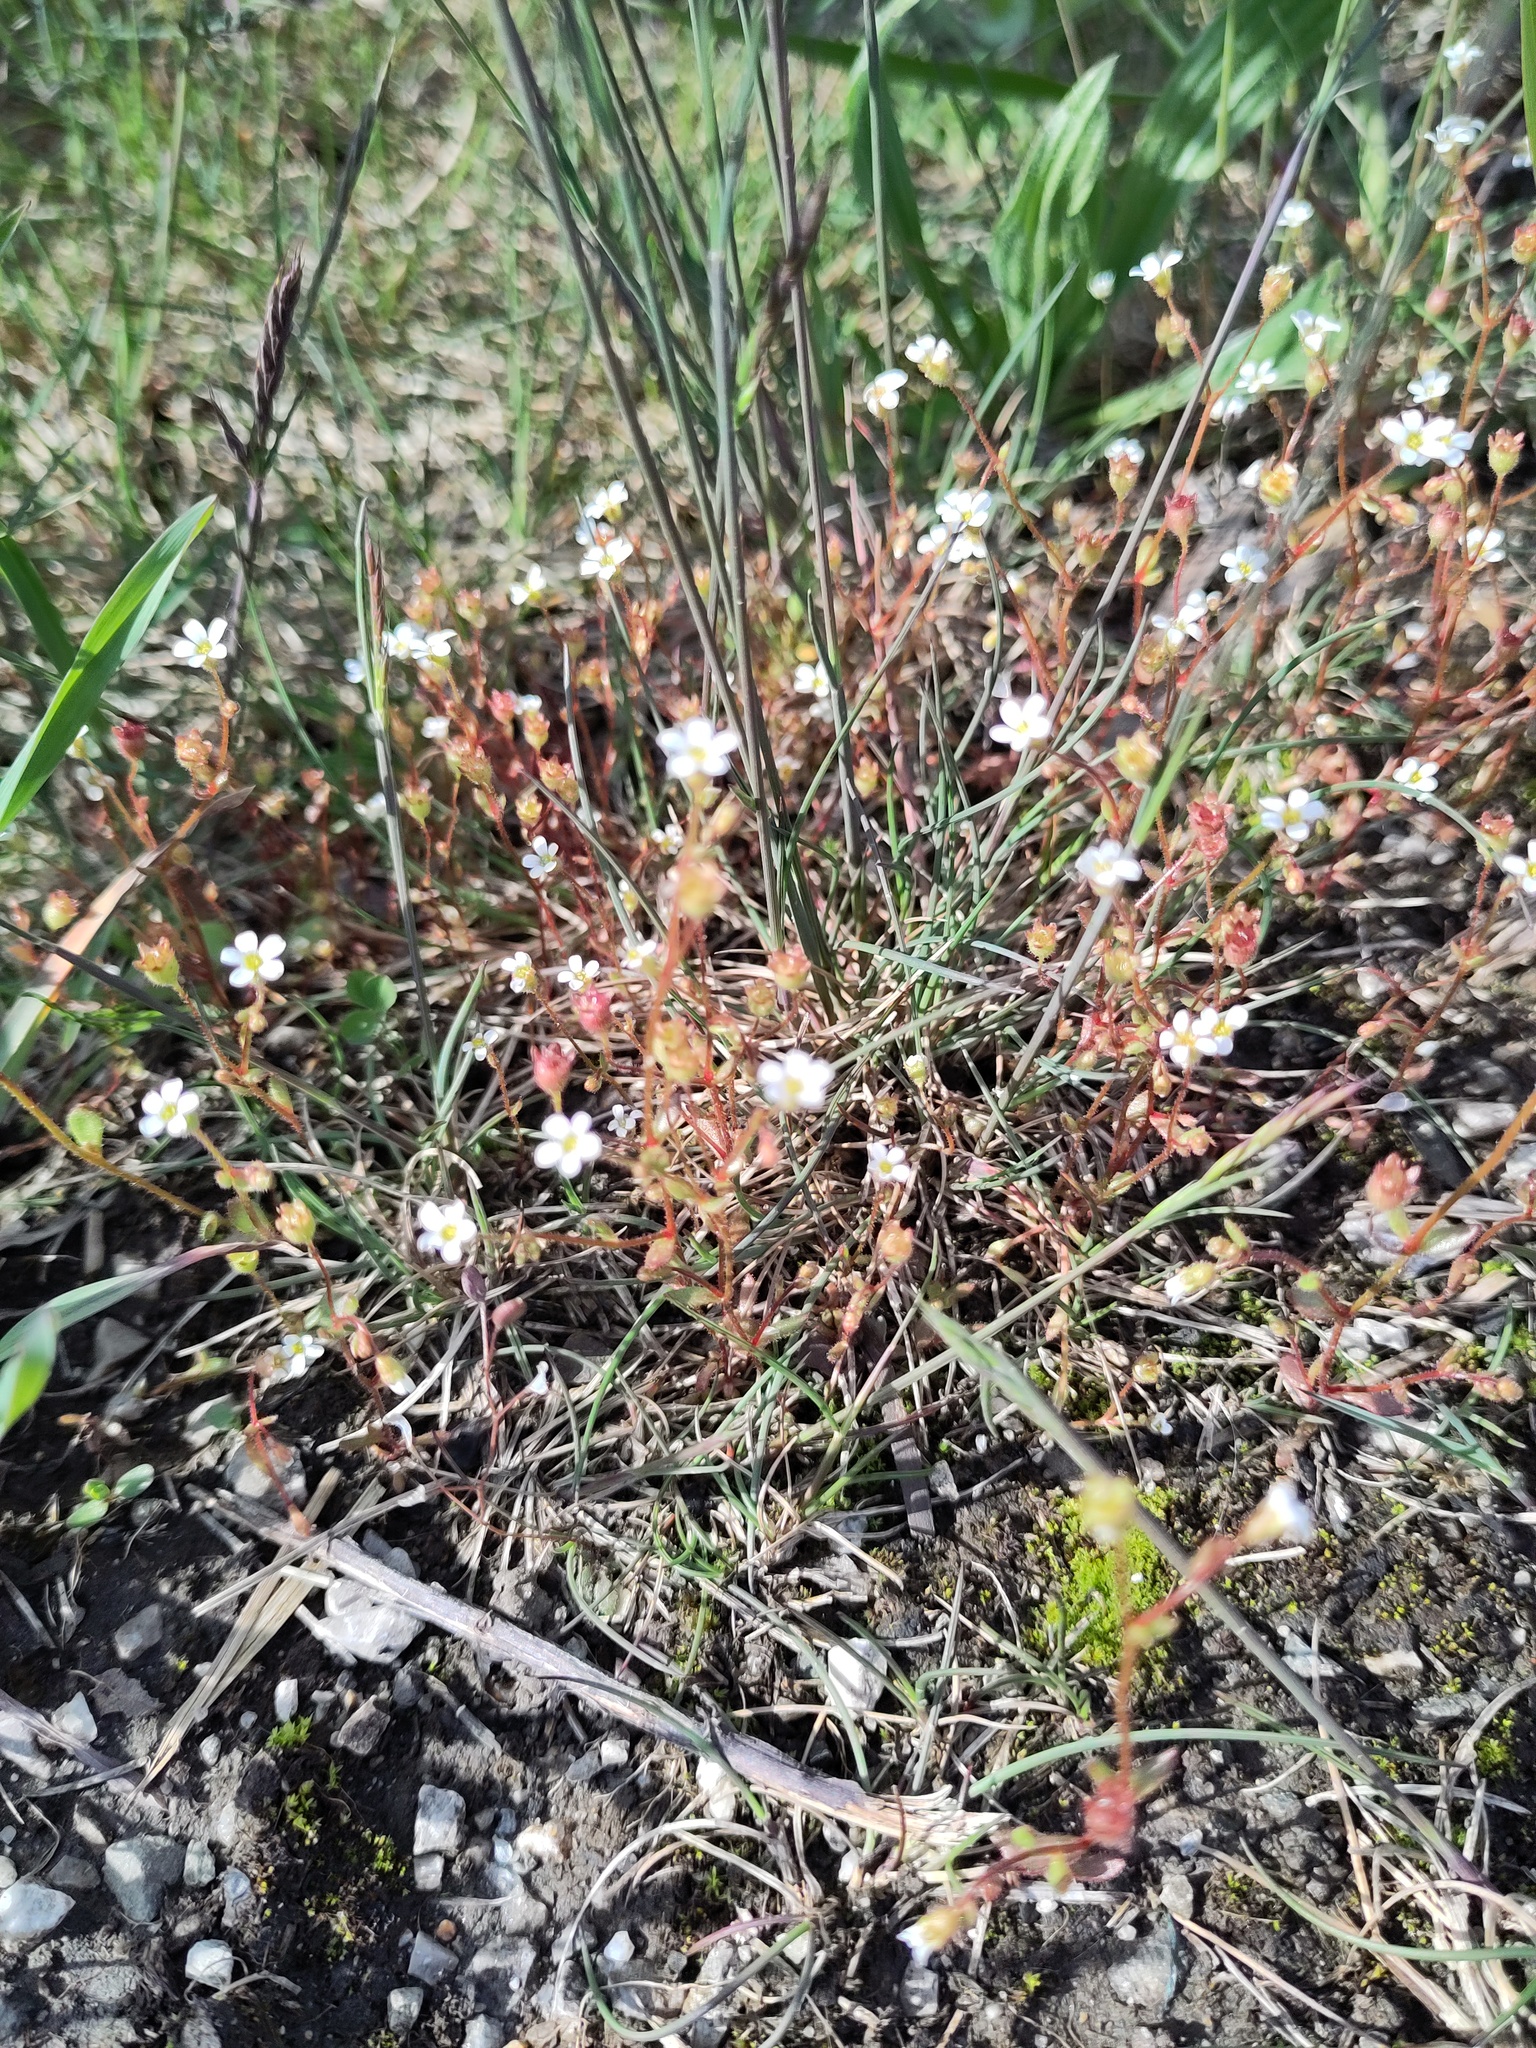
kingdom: Plantae
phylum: Tracheophyta
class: Magnoliopsida
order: Saxifragales
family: Saxifragaceae
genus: Saxifraga
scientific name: Saxifraga tridactylites
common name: Rue-leaved saxifrage
